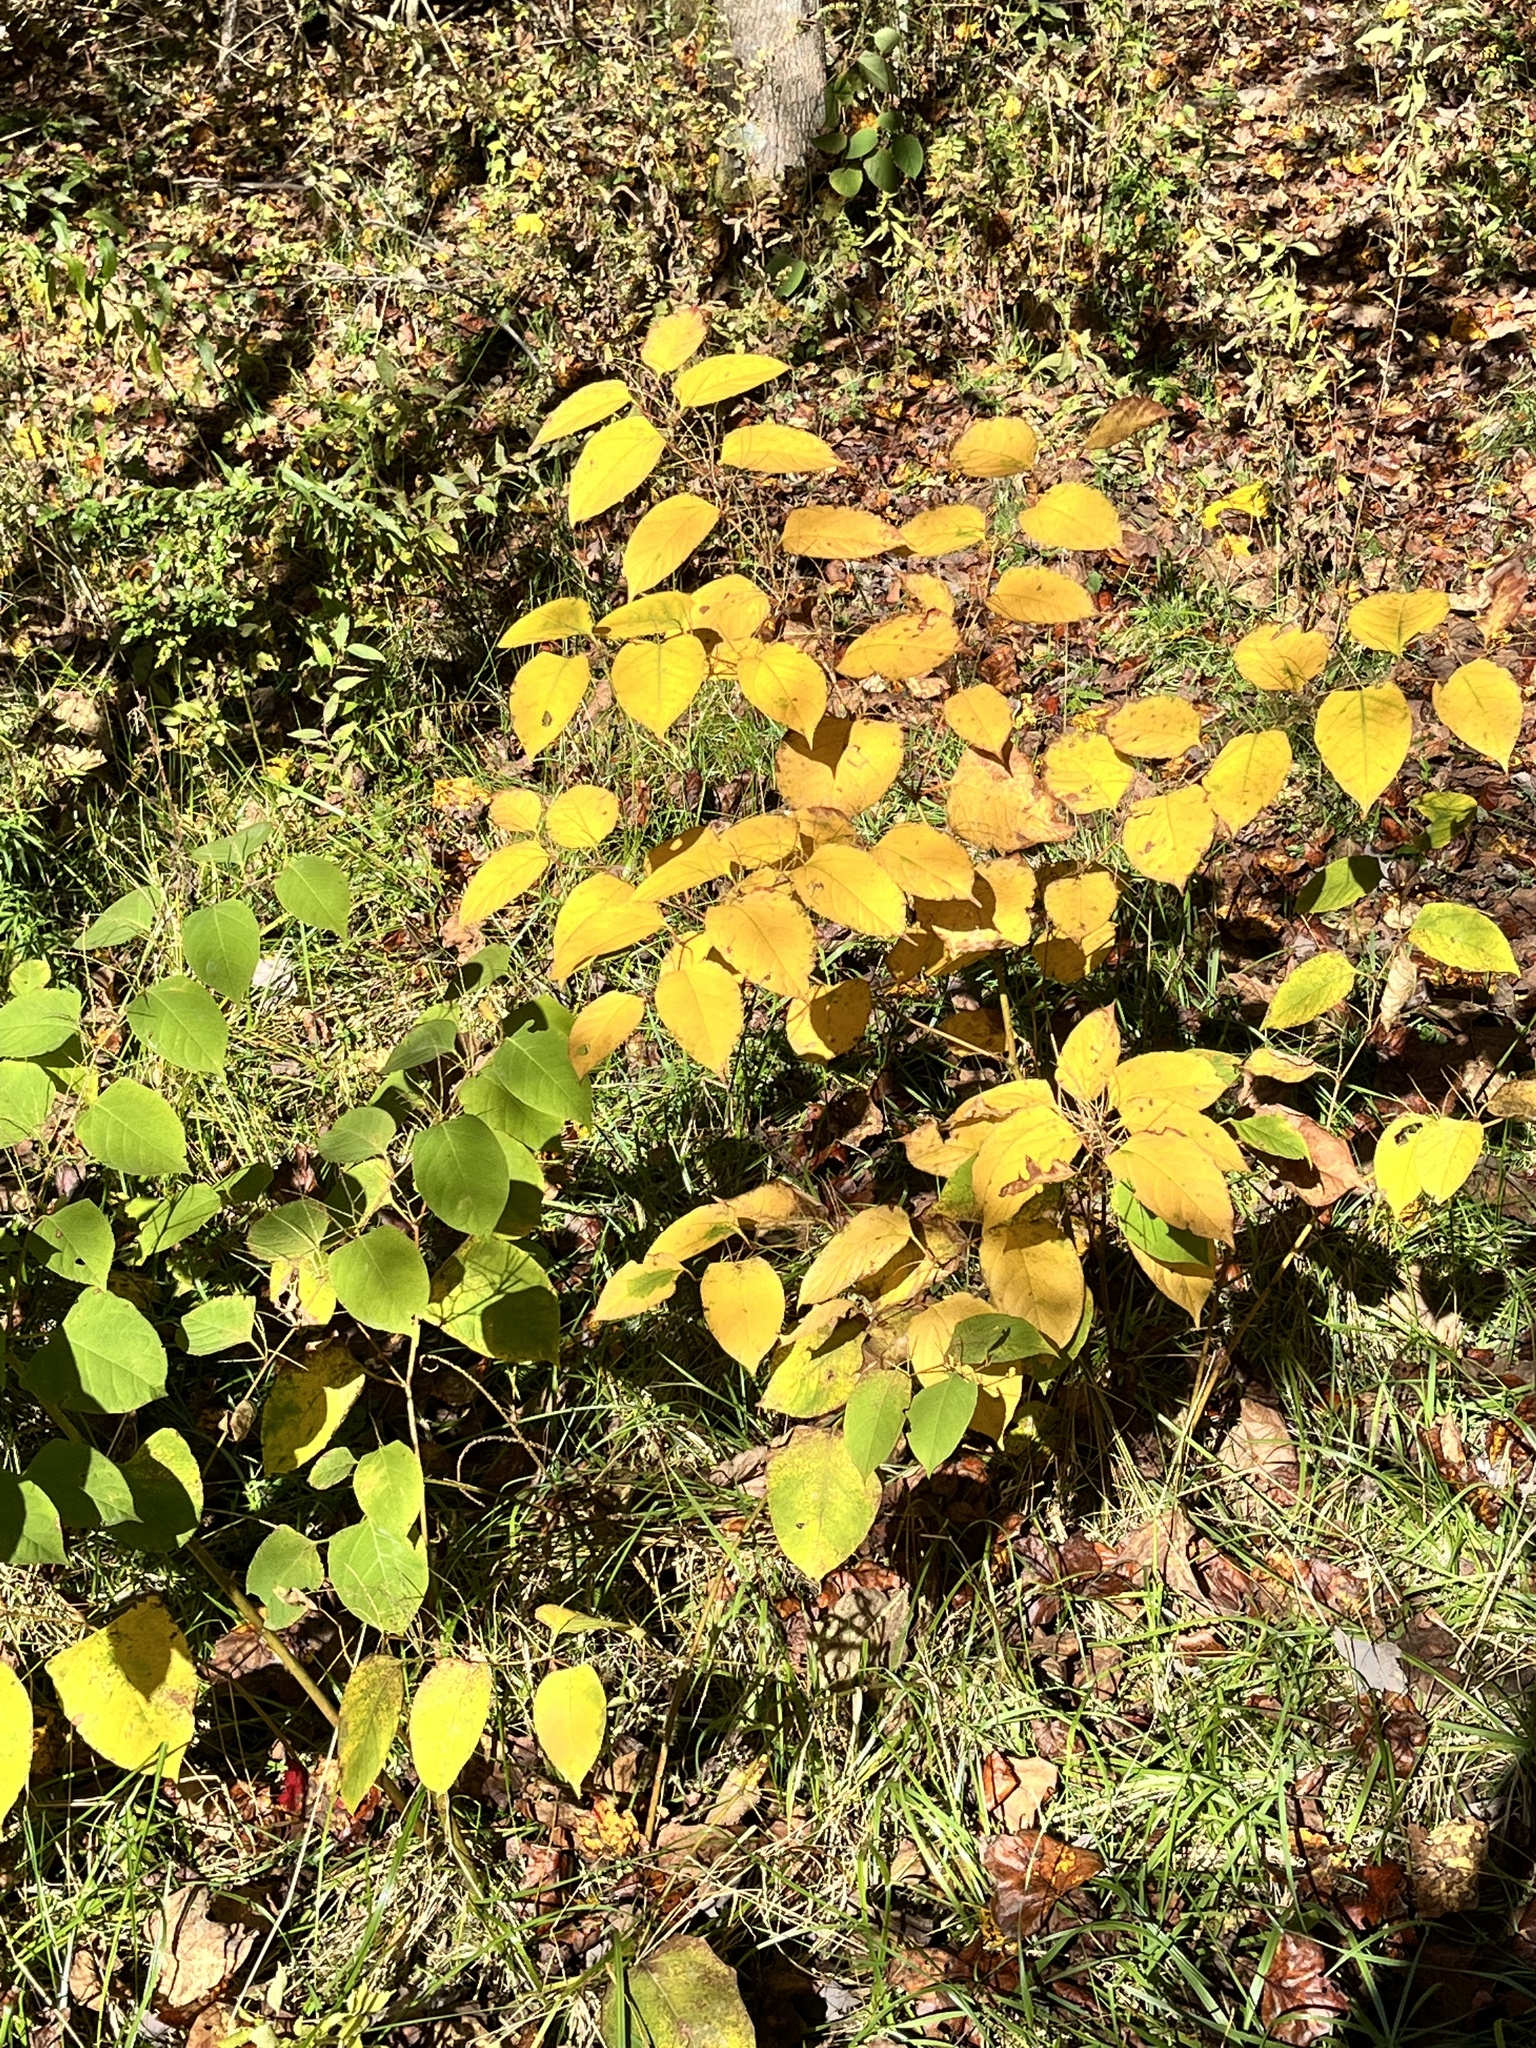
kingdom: Plantae
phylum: Tracheophyta
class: Magnoliopsida
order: Caryophyllales
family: Polygonaceae
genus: Reynoutria
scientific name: Reynoutria japonica
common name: Japanese knotweed
